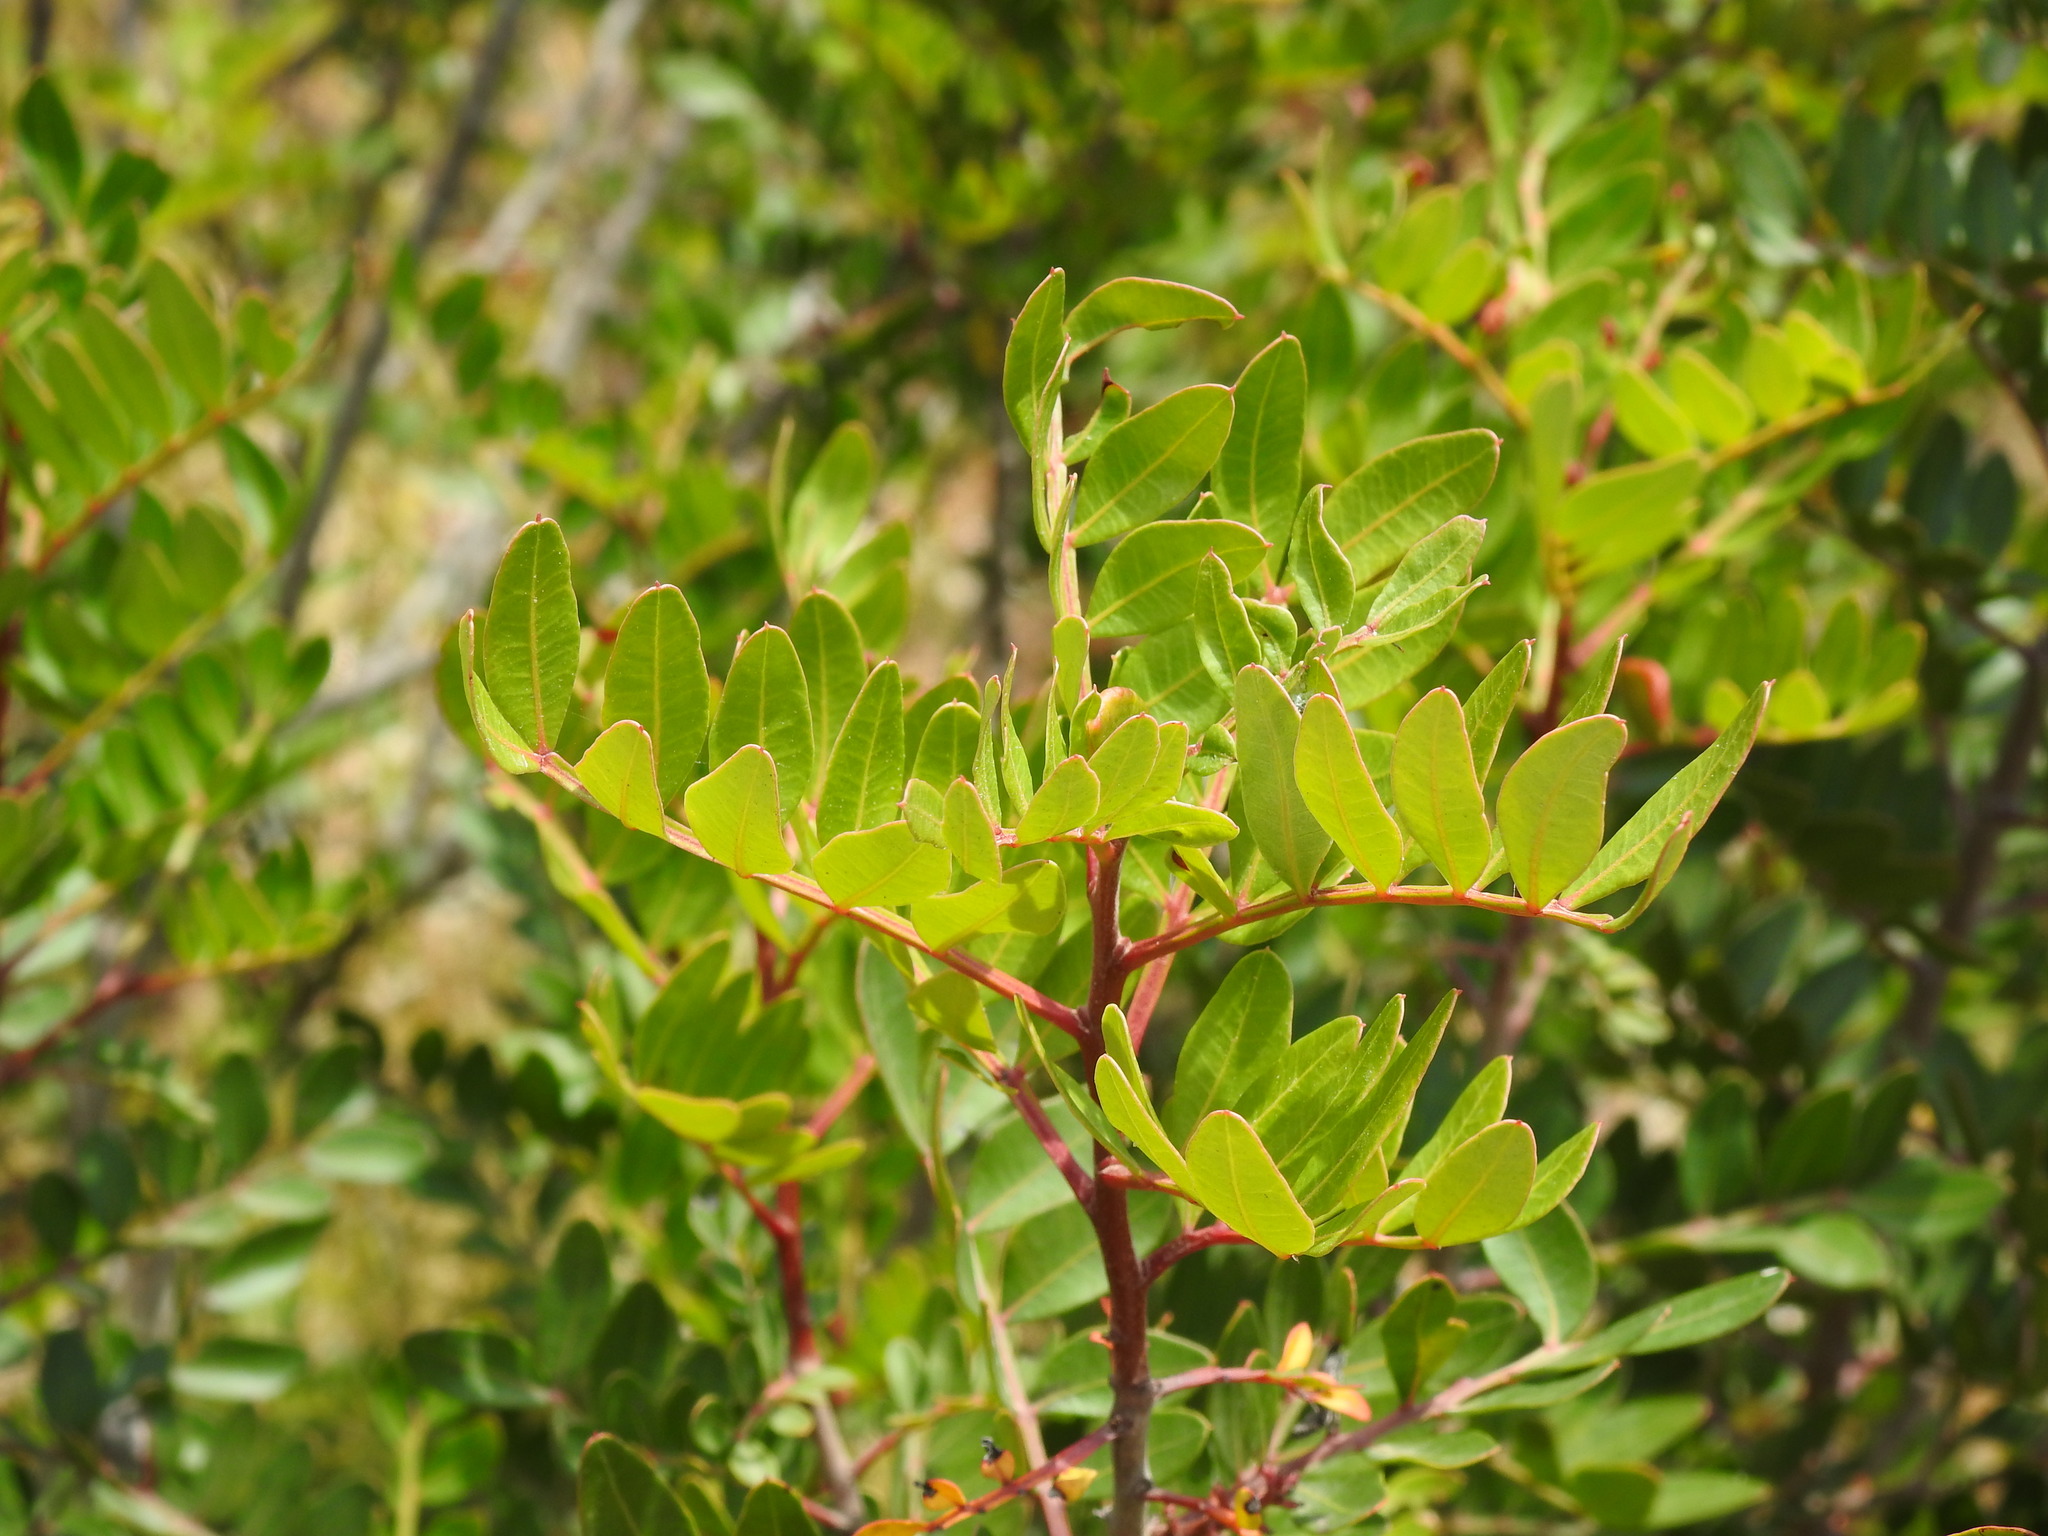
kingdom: Plantae
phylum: Tracheophyta
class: Magnoliopsida
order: Sapindales
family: Anacardiaceae
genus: Pistacia
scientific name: Pistacia lentiscus
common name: Lentisk
